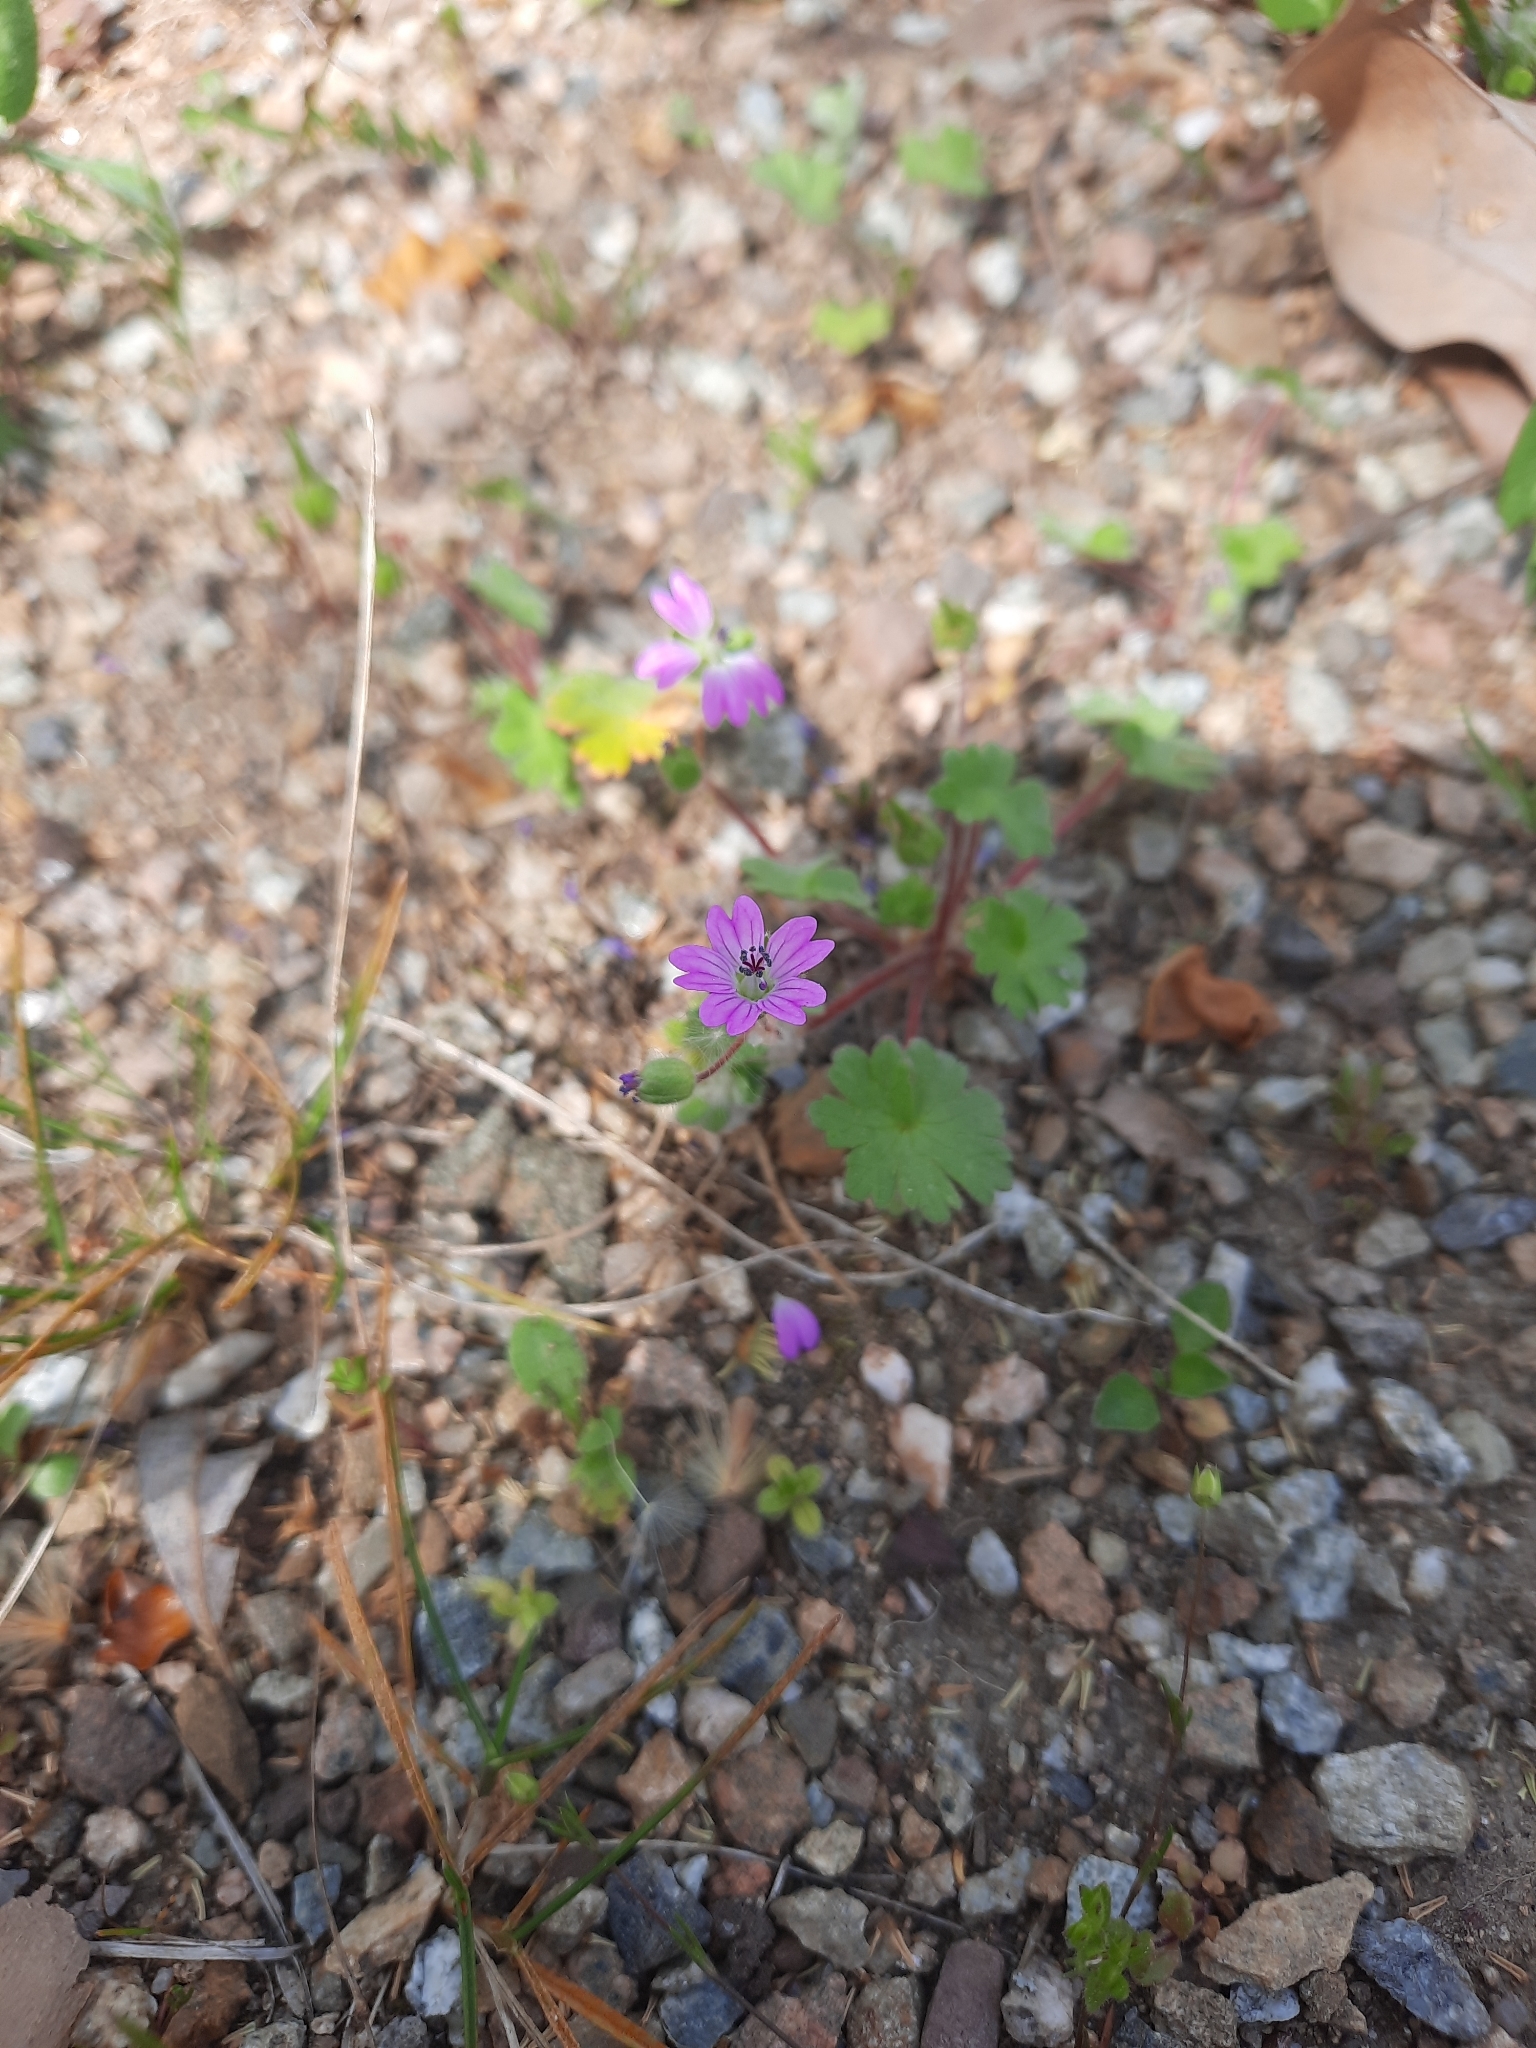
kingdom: Plantae
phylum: Tracheophyta
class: Magnoliopsida
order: Geraniales
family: Geraniaceae
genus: Geranium
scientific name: Geranium molle
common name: Dove's-foot crane's-bill
